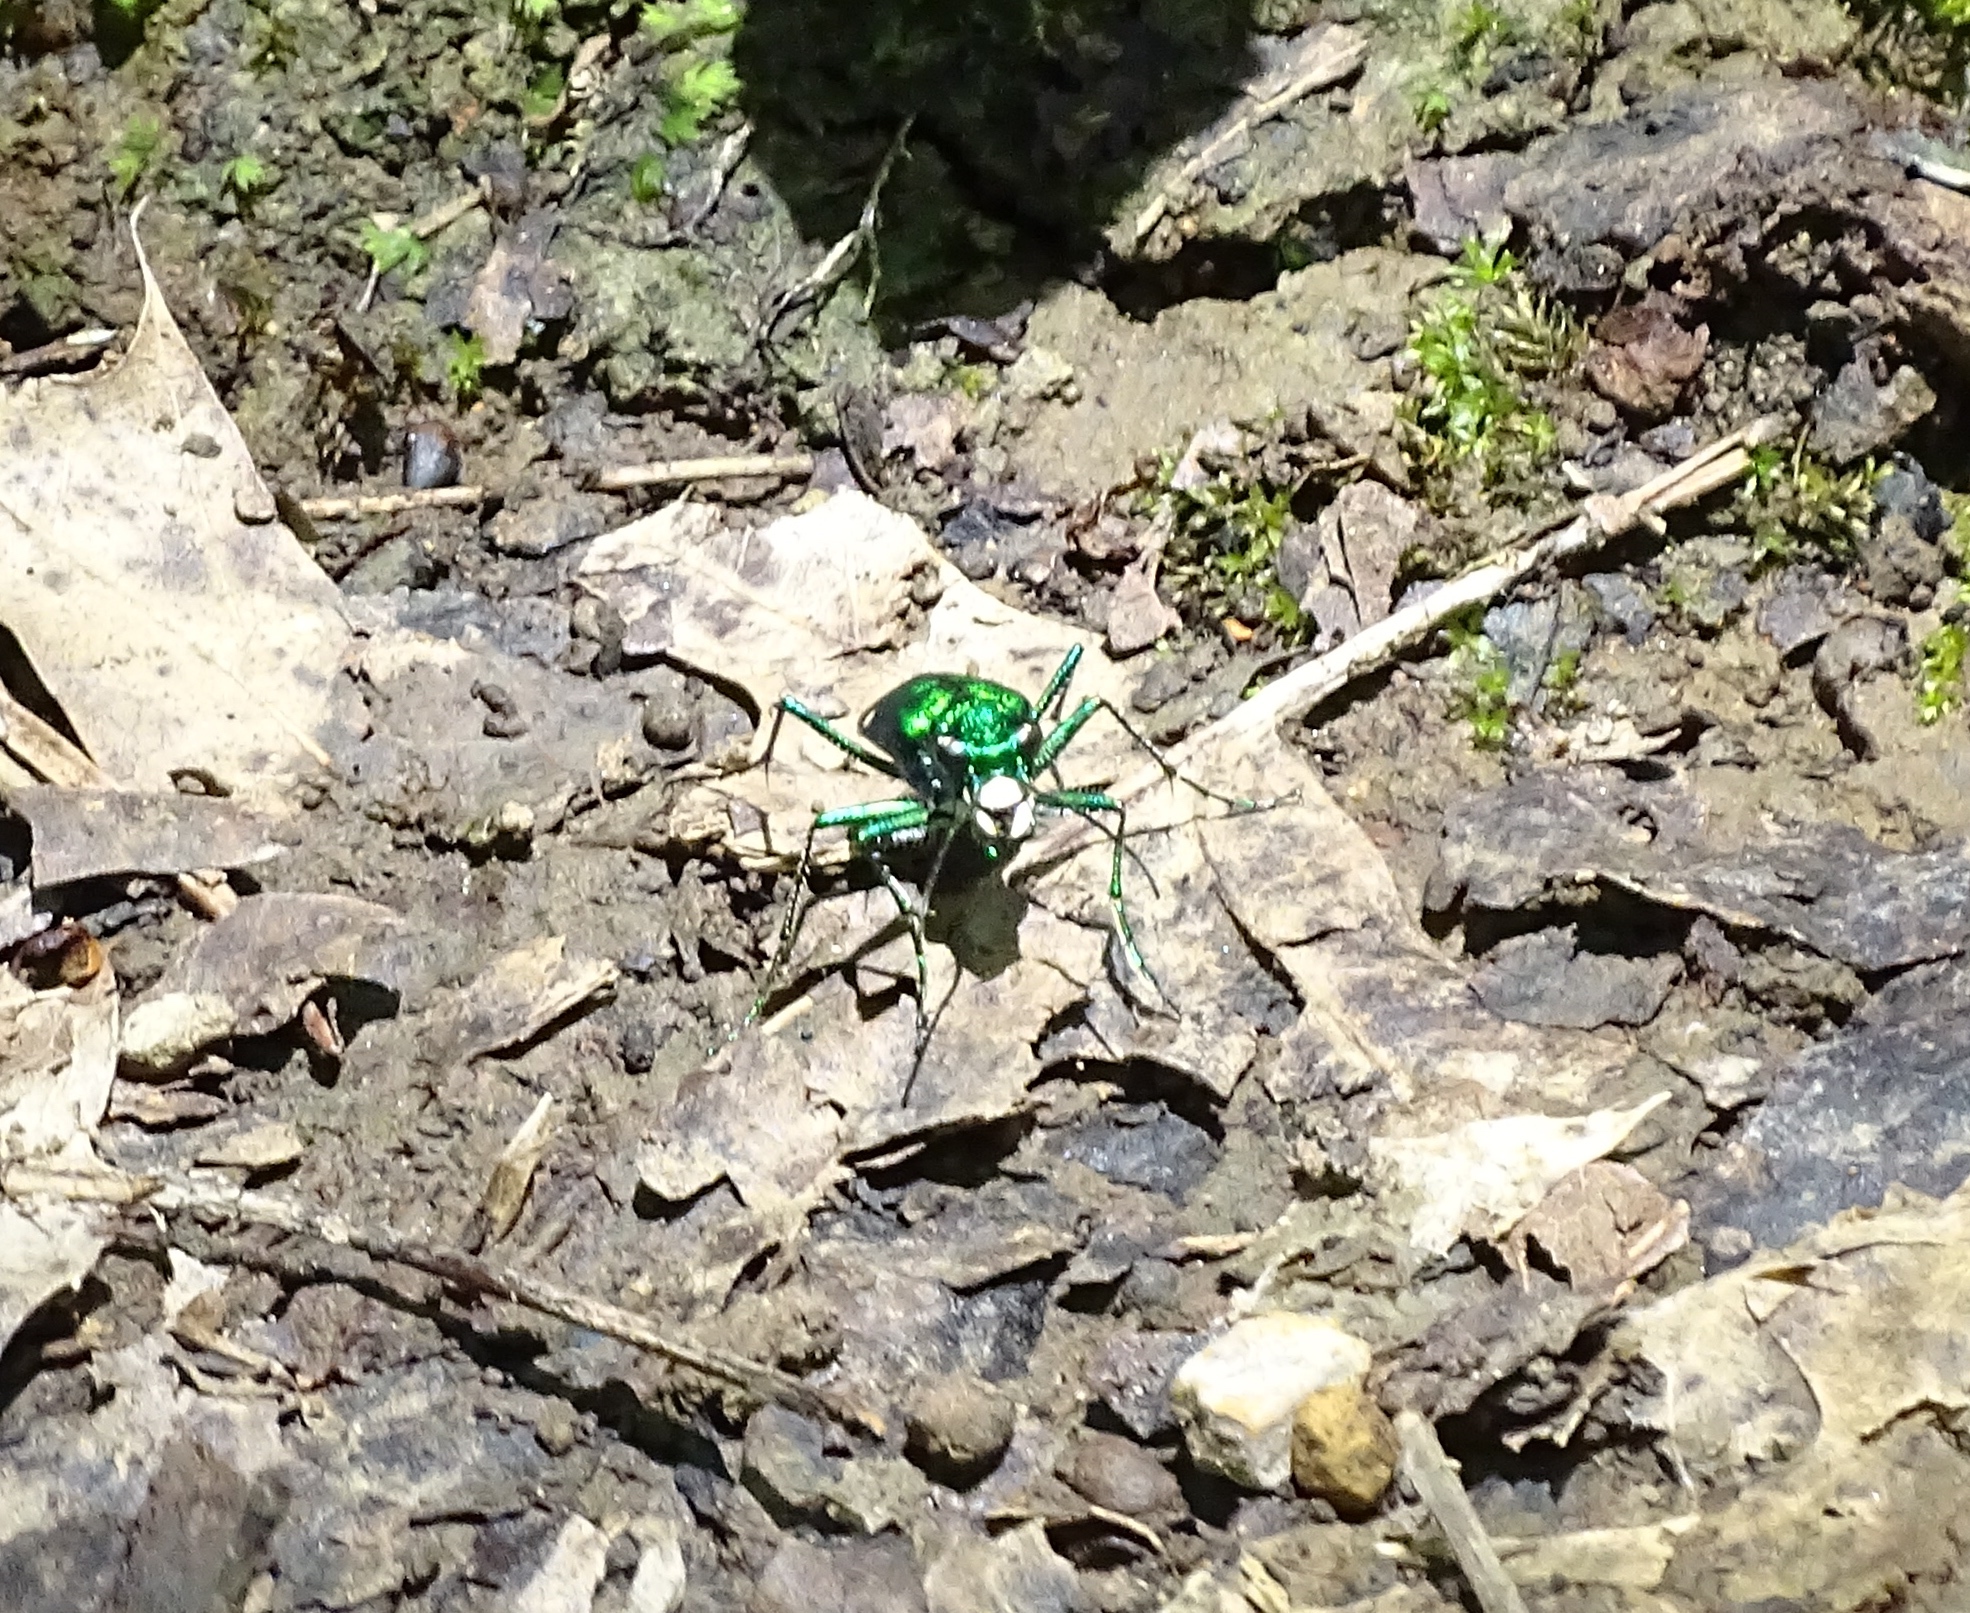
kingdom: Animalia
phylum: Arthropoda
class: Insecta
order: Coleoptera
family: Carabidae
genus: Cicindela
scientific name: Cicindela sexguttata
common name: Six-spotted tiger beetle
